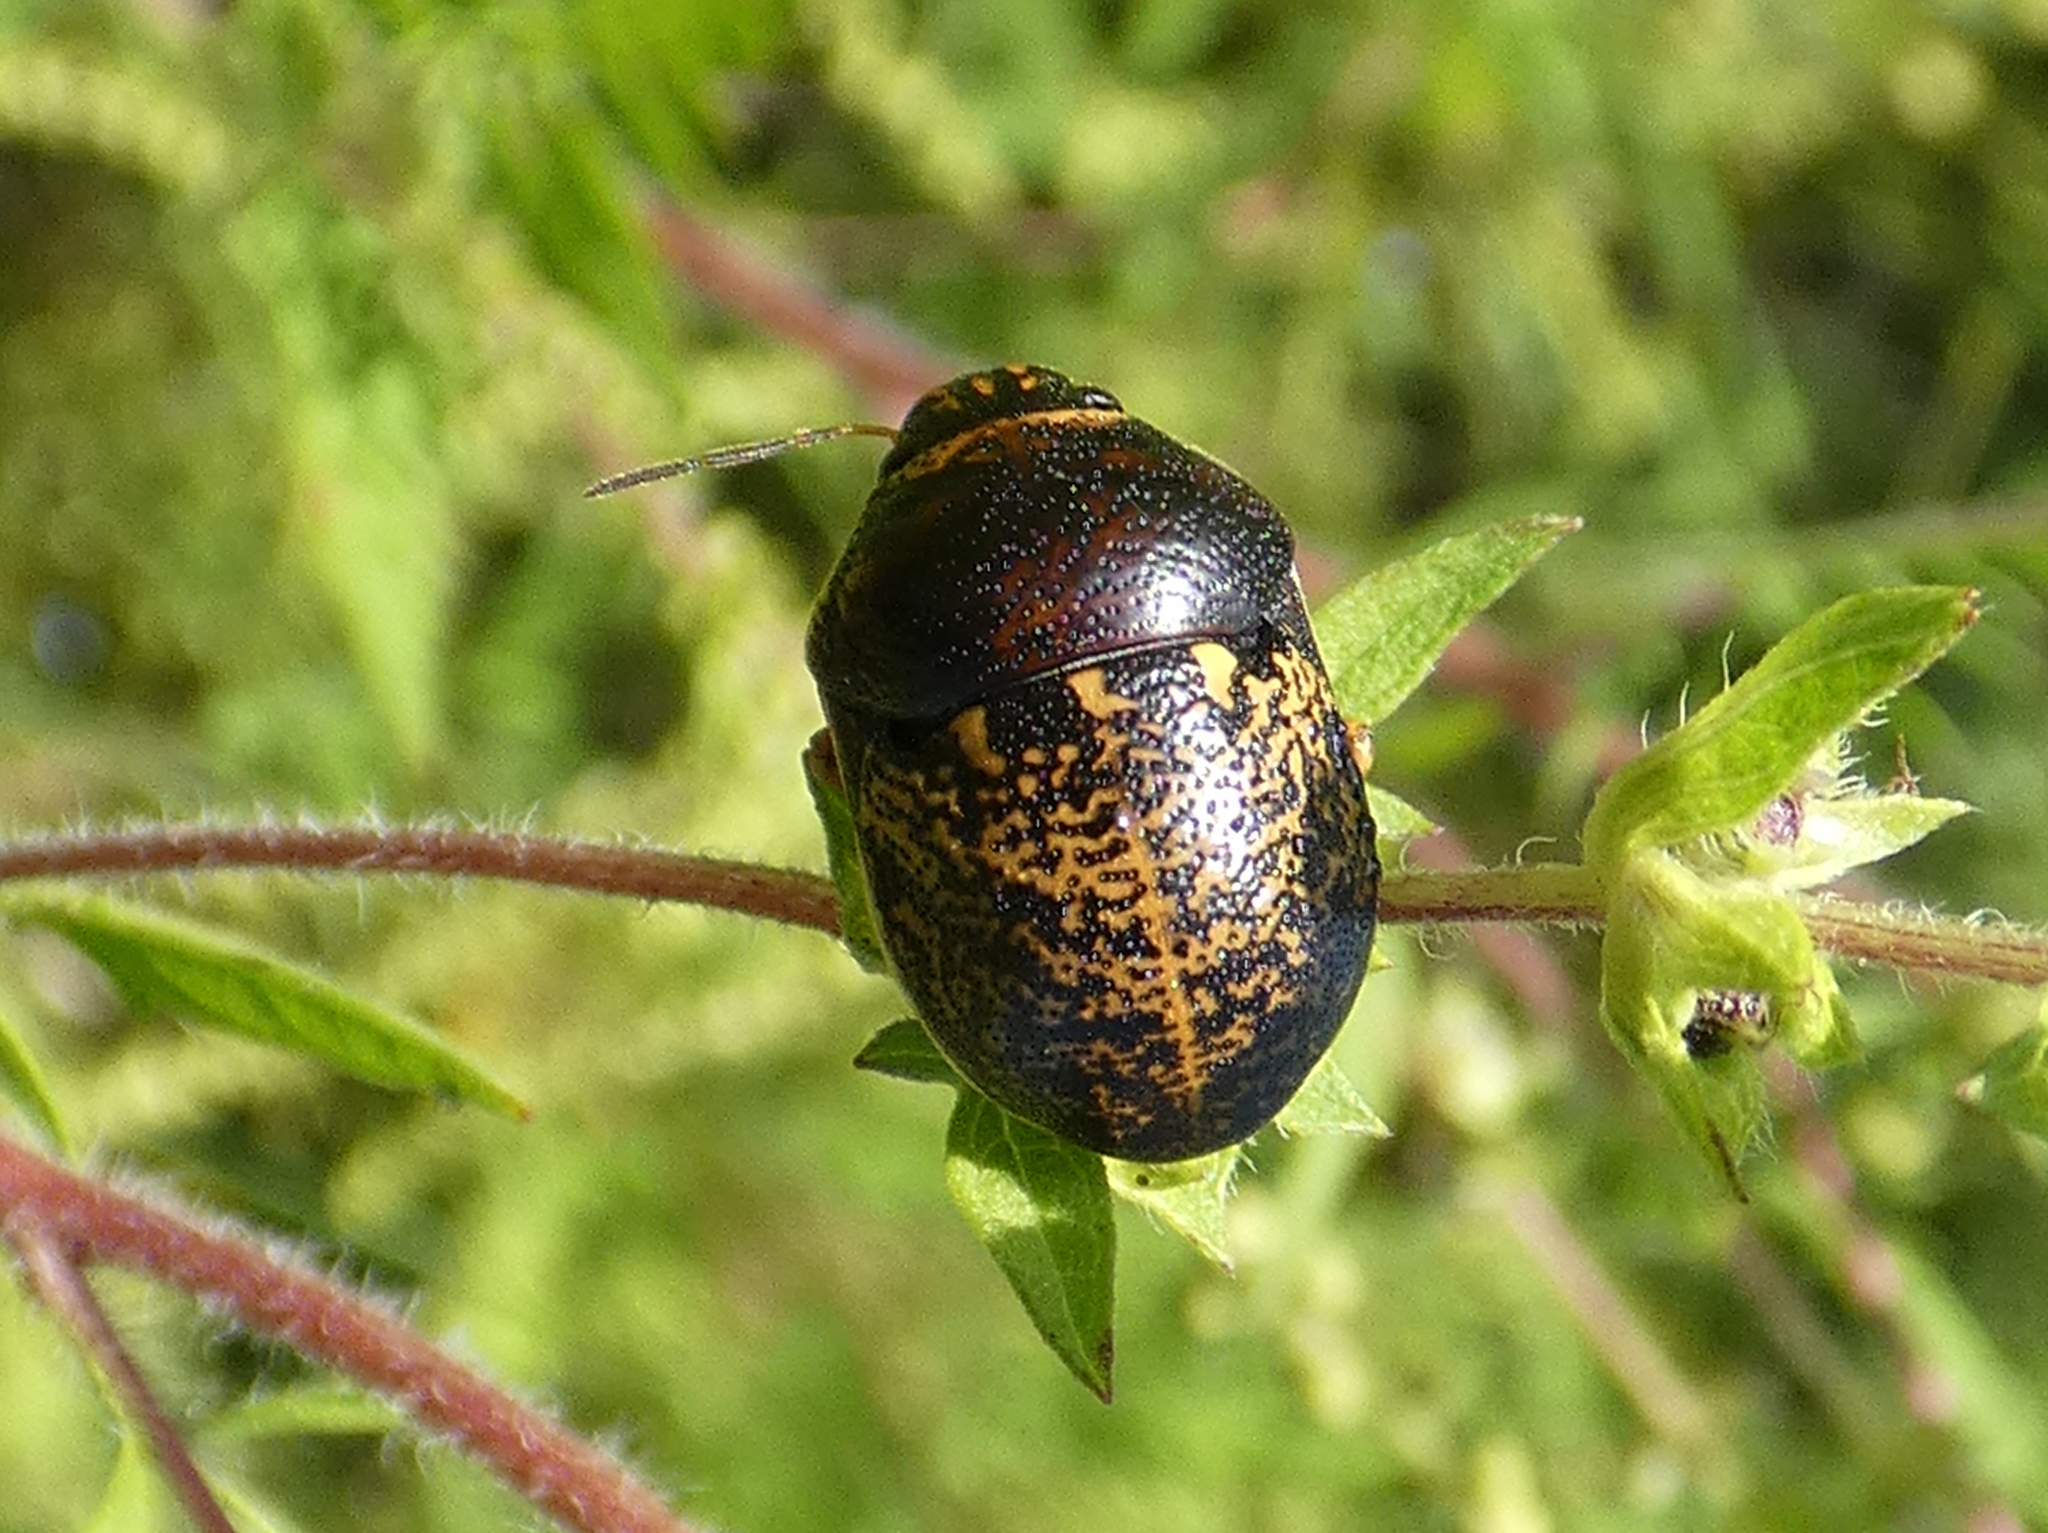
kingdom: Animalia
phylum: Arthropoda
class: Insecta
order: Hemiptera
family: Scutelleridae
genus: Orsilochides
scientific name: Orsilochides guttata
